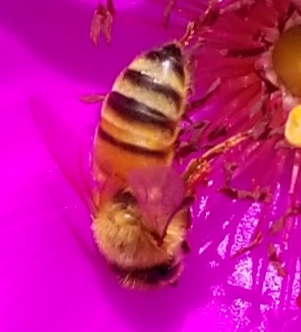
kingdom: Animalia
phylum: Arthropoda
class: Insecta
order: Hymenoptera
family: Apidae
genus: Apis
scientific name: Apis mellifera
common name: Honey bee
